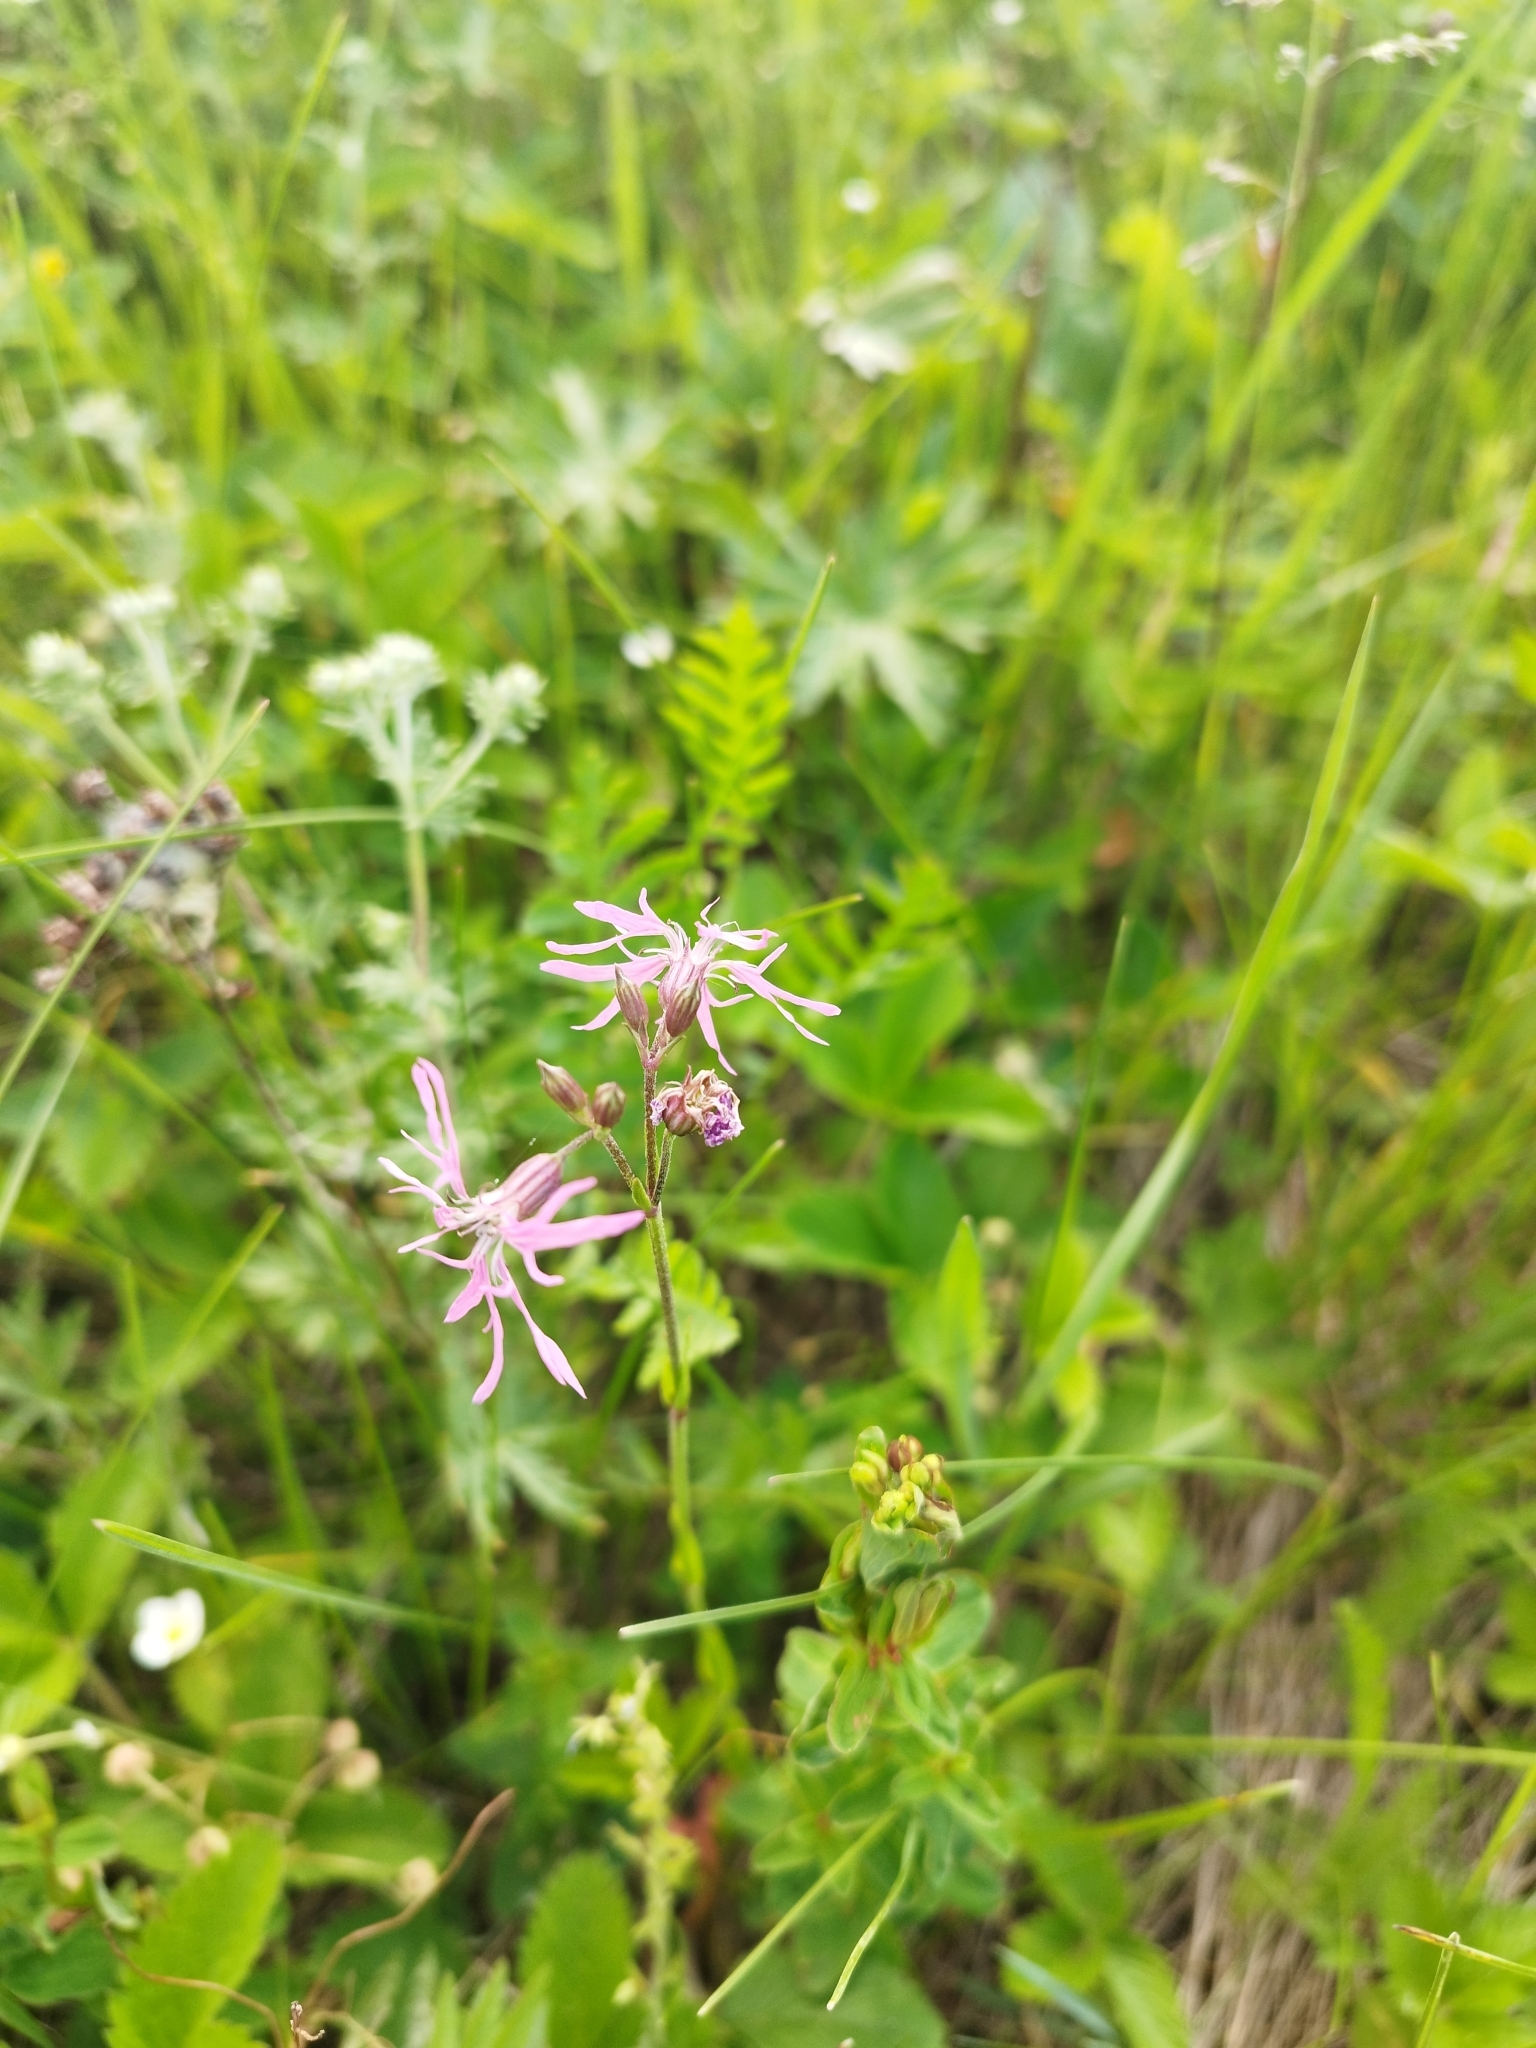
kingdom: Plantae
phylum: Tracheophyta
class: Magnoliopsida
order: Caryophyllales
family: Caryophyllaceae
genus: Silene
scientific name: Silene flos-cuculi
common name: Ragged-robin
